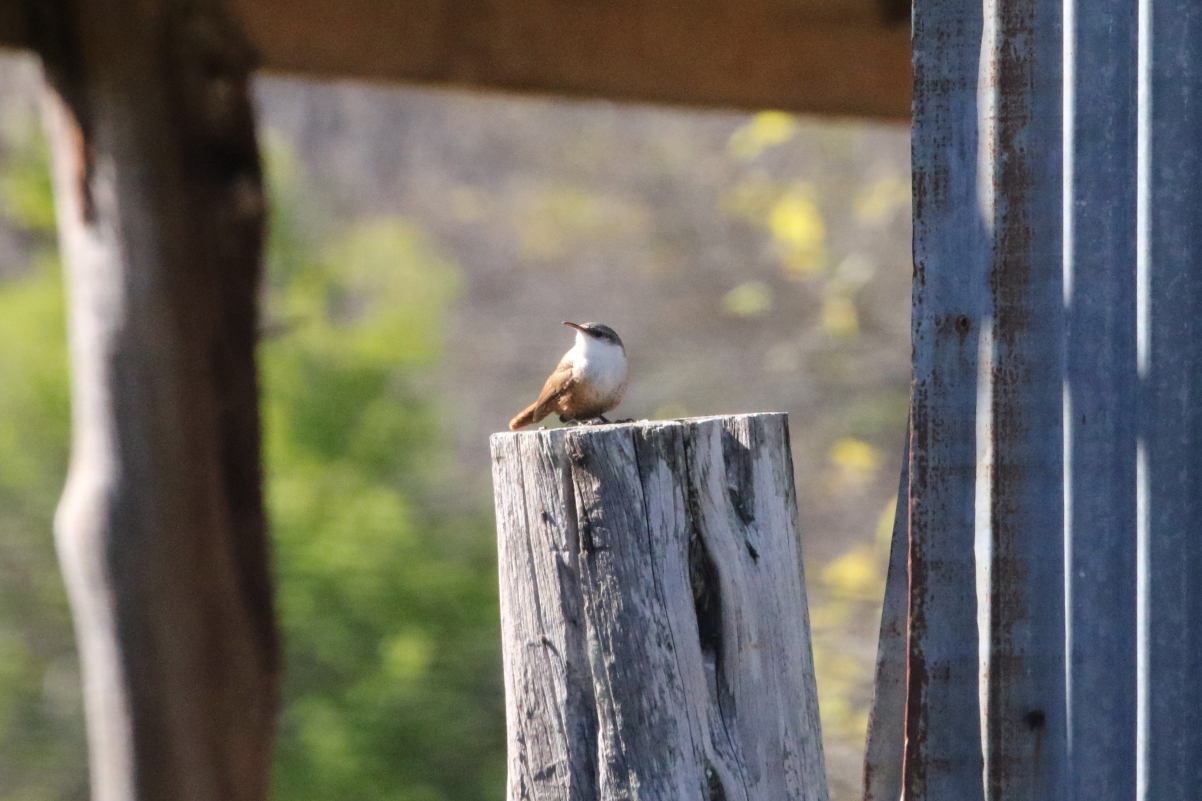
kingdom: Animalia
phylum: Chordata
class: Aves
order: Passeriformes
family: Troglodytidae
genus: Catherpes
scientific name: Catherpes mexicanus
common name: Canyon wren
